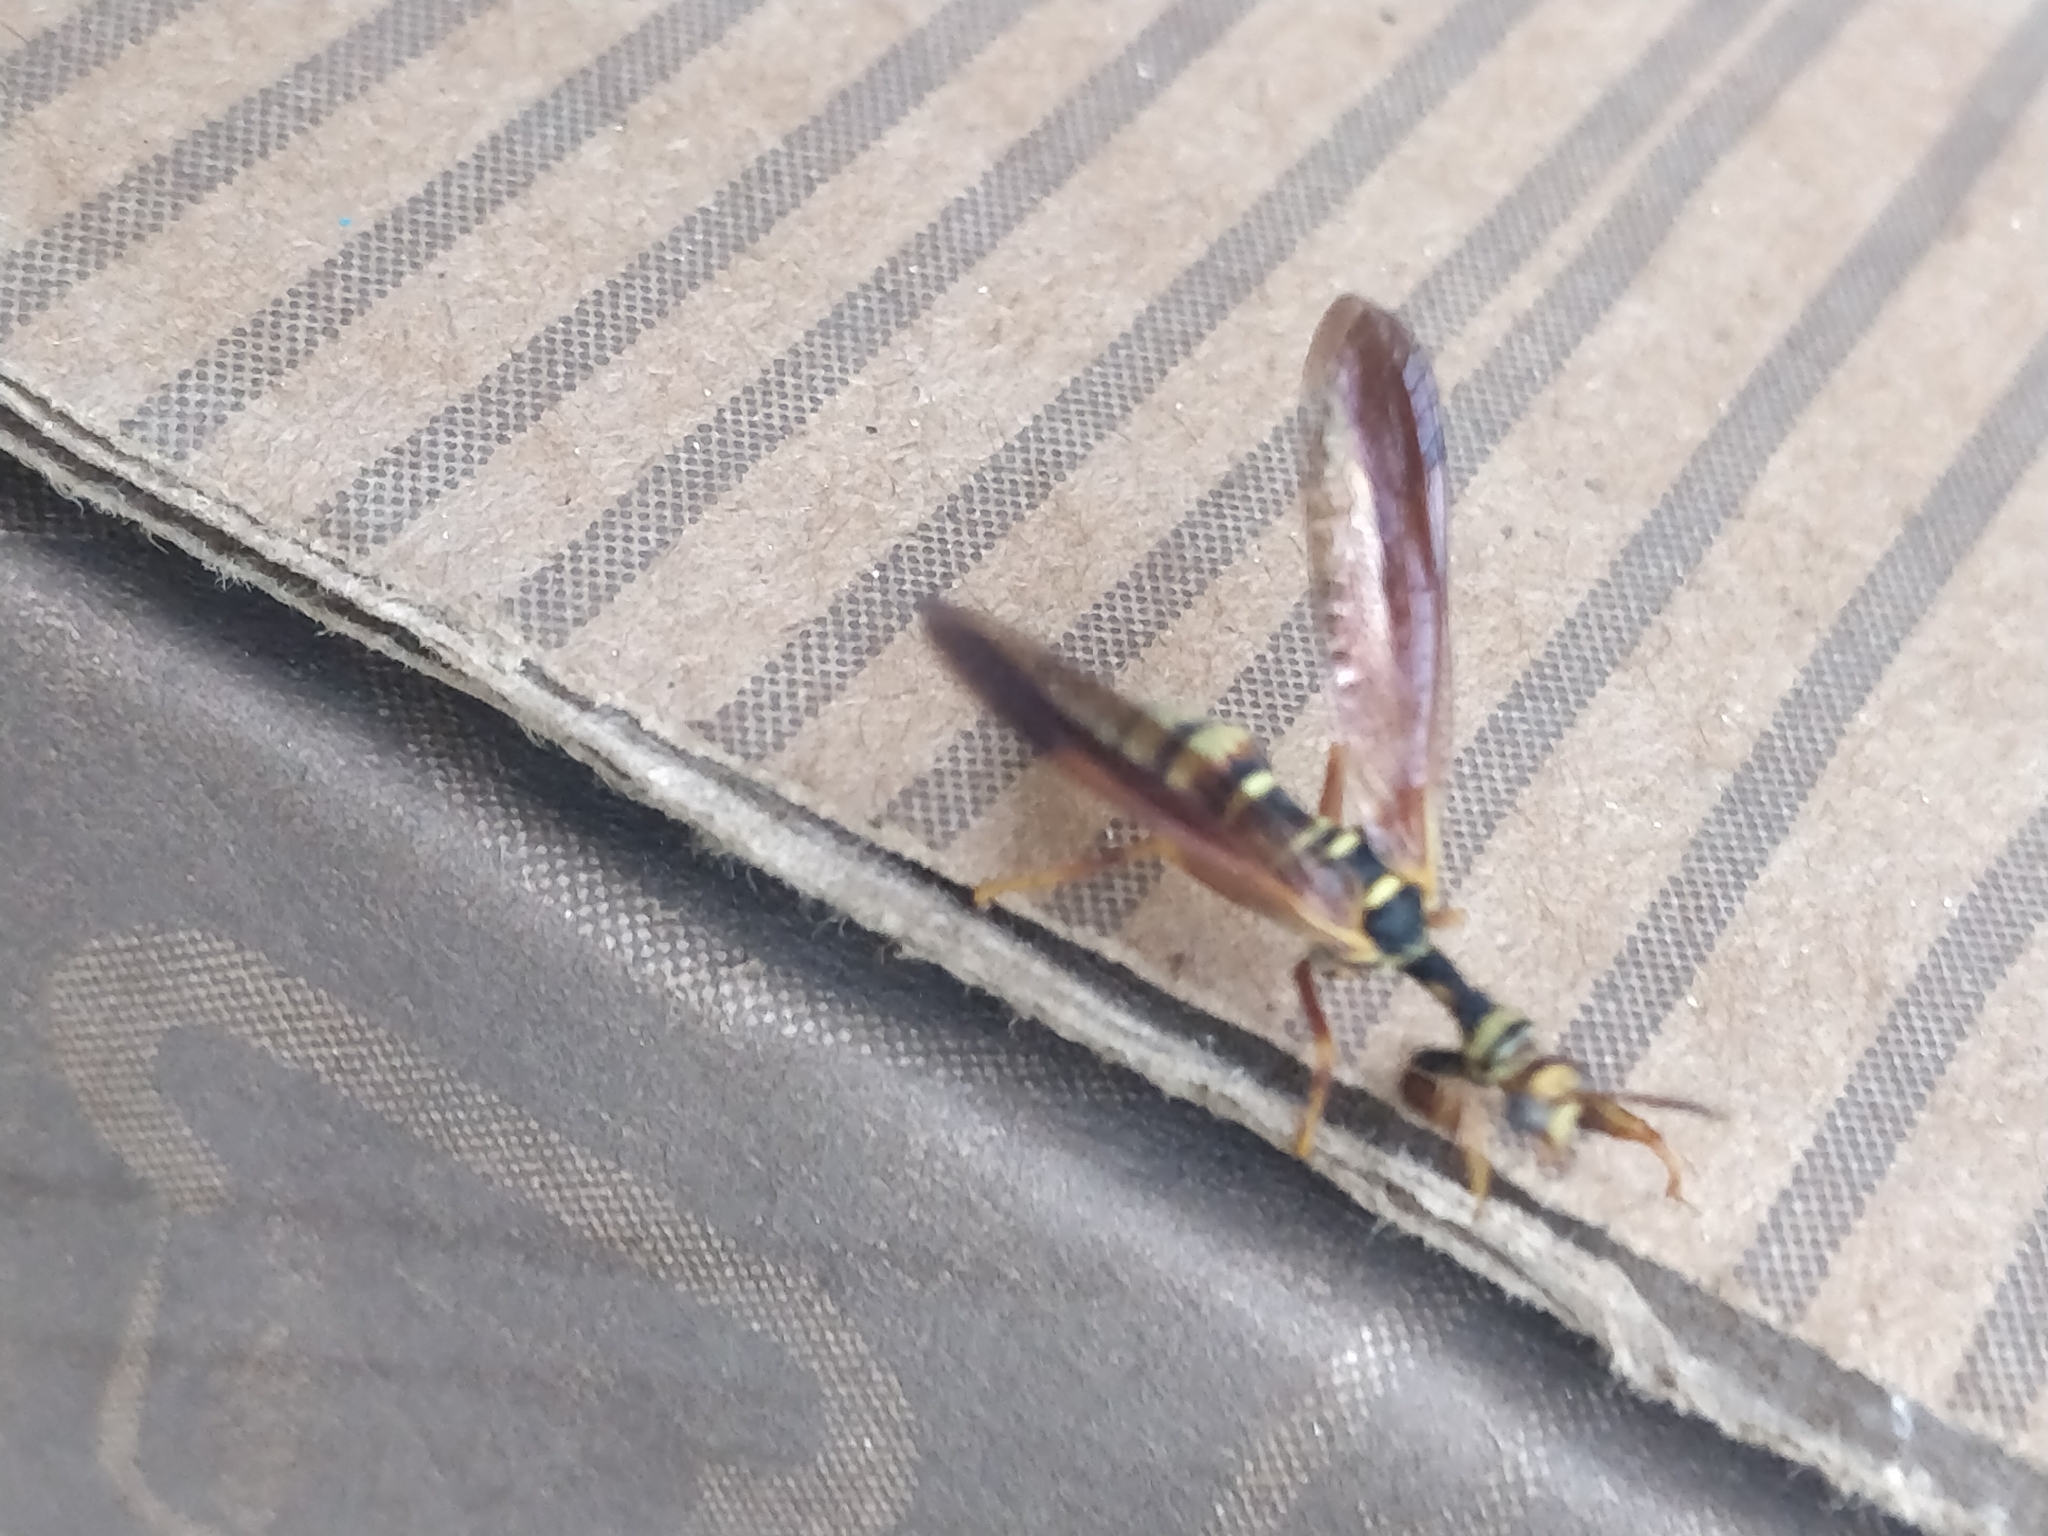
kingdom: Animalia
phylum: Arthropoda
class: Insecta
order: Neuroptera
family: Mantispidae
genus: Climaciella
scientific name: Climaciella brunnea
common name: Brown wasp mantidfly
